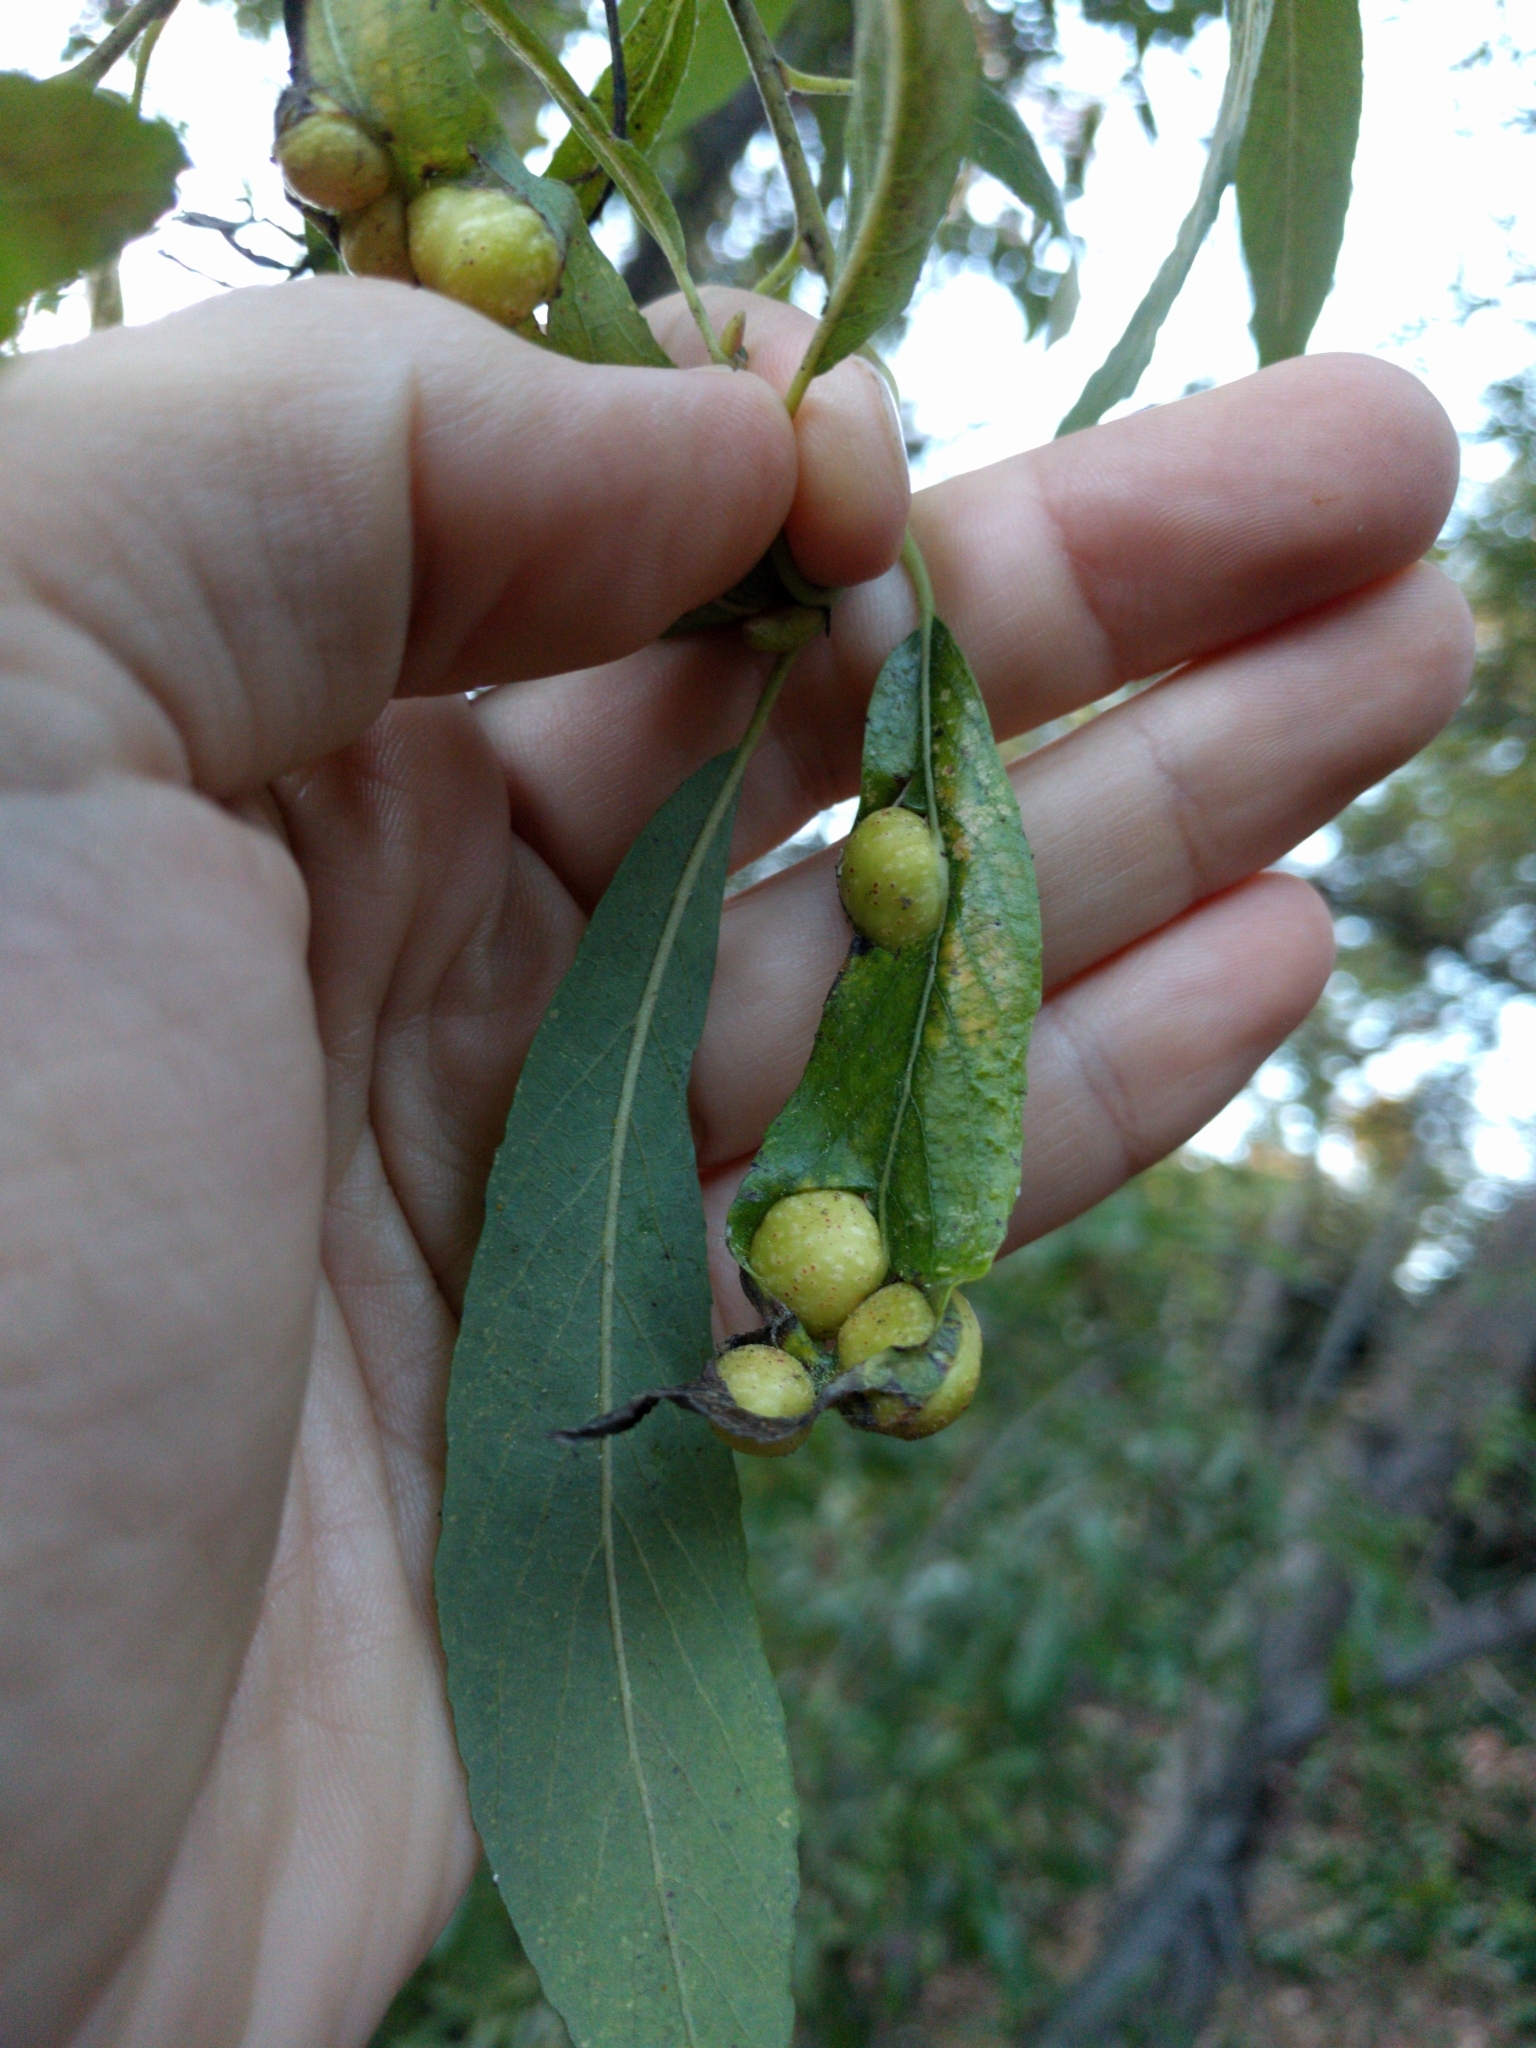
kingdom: Animalia
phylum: Arthropoda
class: Insecta
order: Hymenoptera
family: Tenthredinidae
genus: Euura
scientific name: Euura
